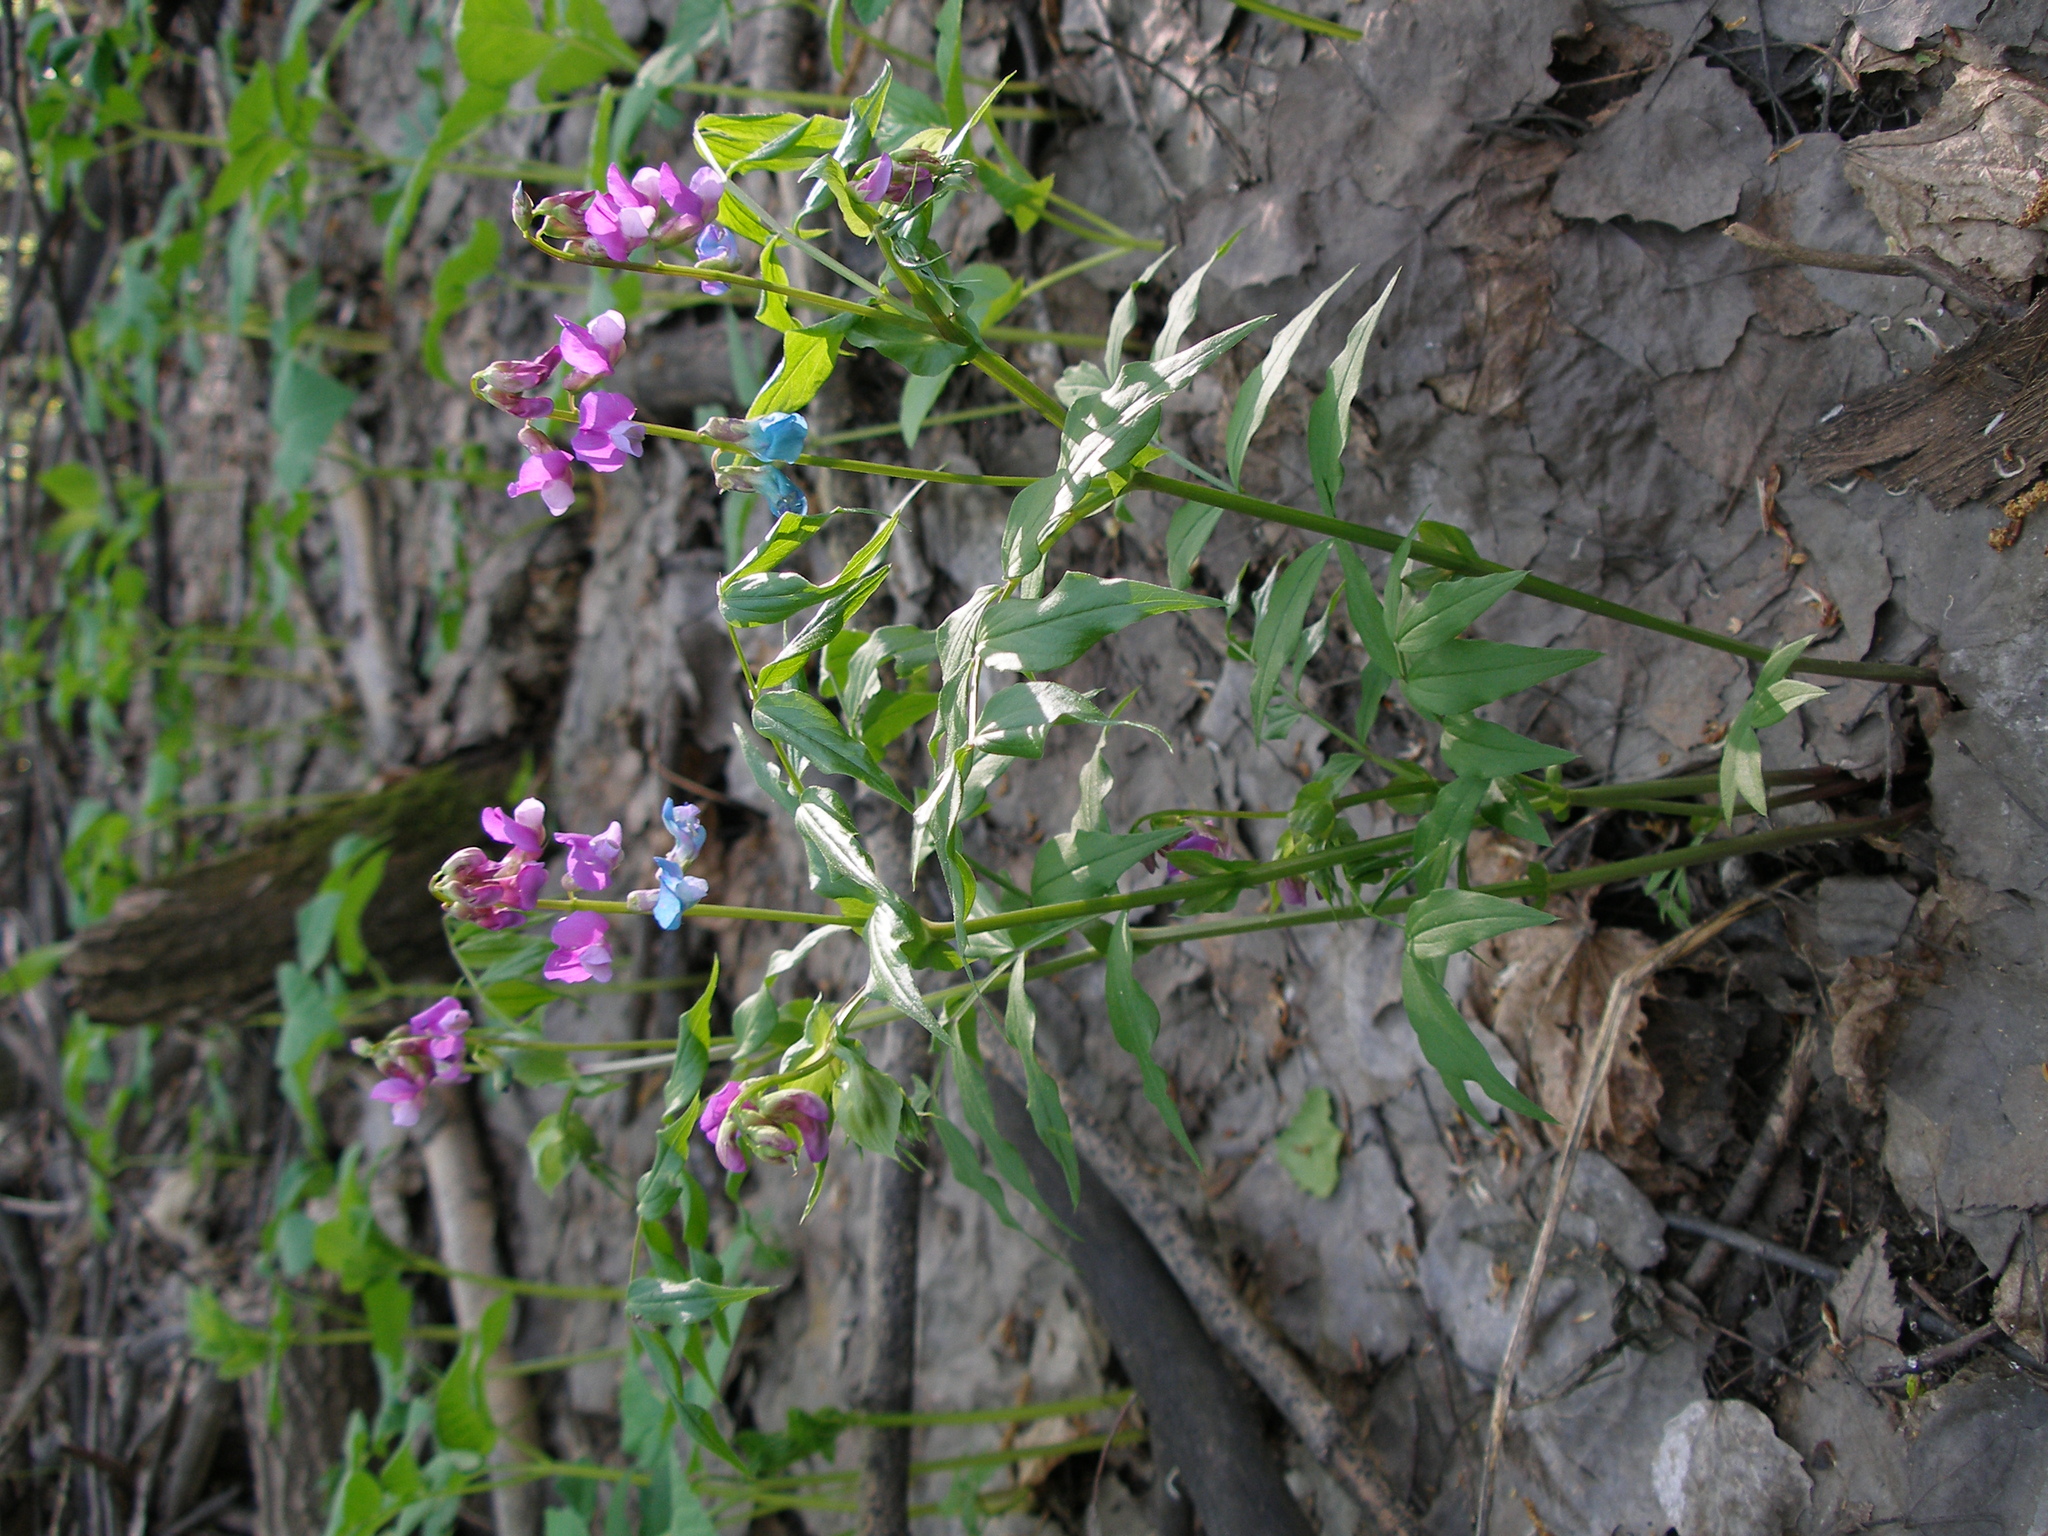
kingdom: Plantae
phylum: Tracheophyta
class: Magnoliopsida
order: Fabales
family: Fabaceae
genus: Lathyrus
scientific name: Lathyrus vernus
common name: Spring pea
